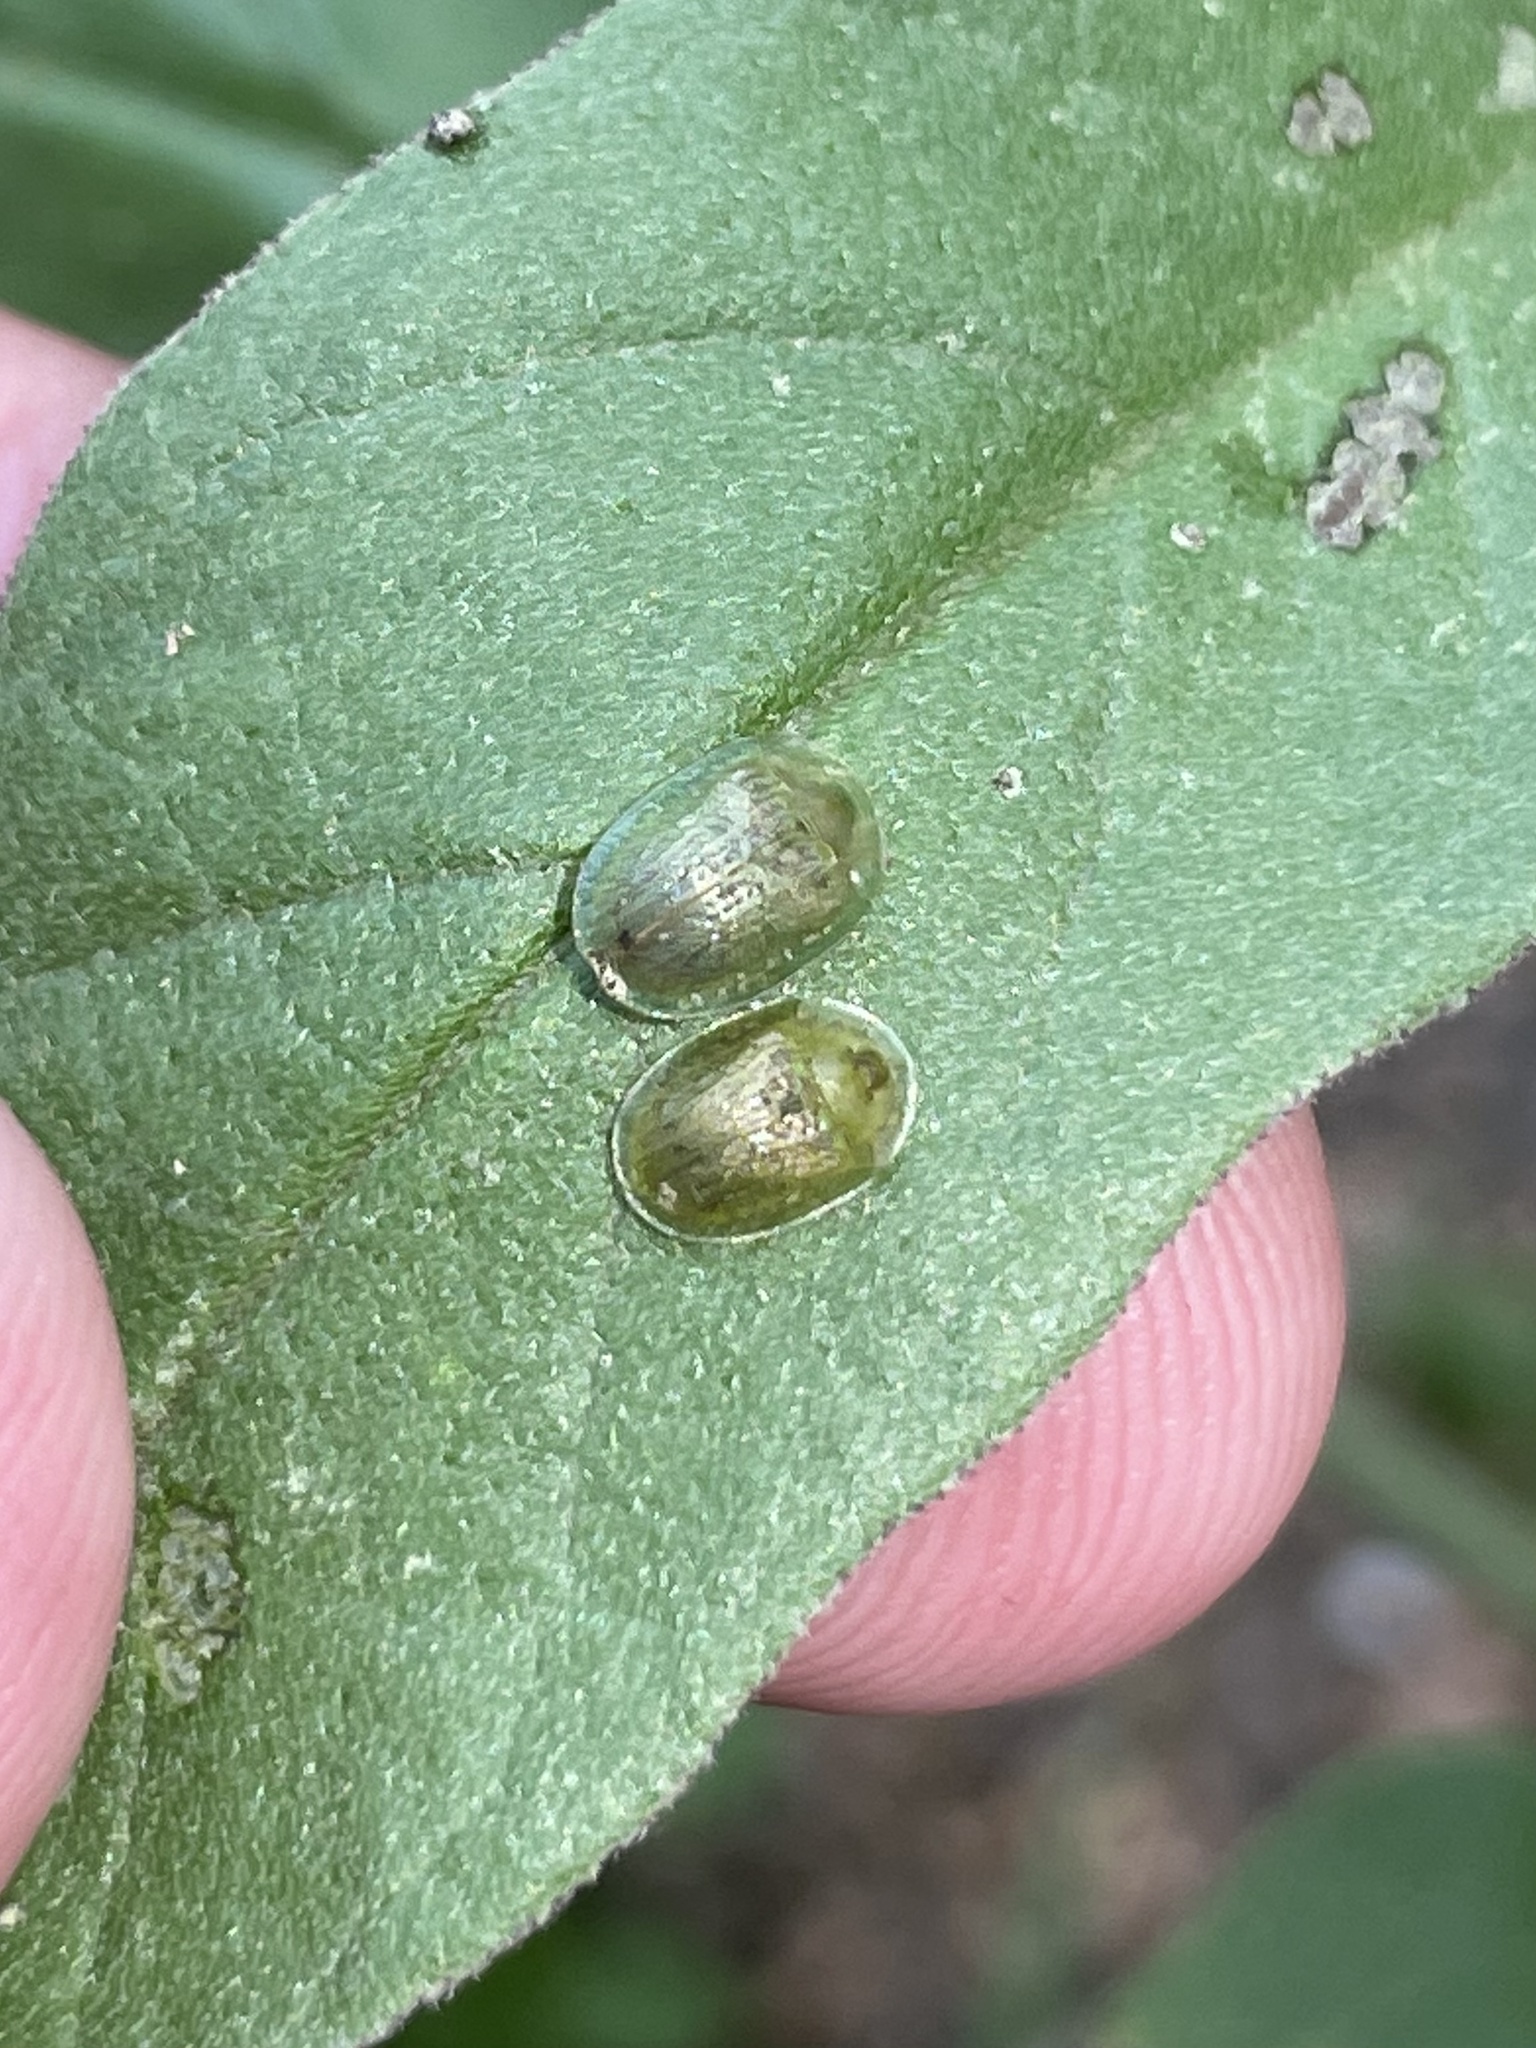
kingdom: Animalia
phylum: Arthropoda
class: Insecta
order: Coleoptera
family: Chrysomelidae
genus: Gratiana
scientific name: Gratiana pallidula
